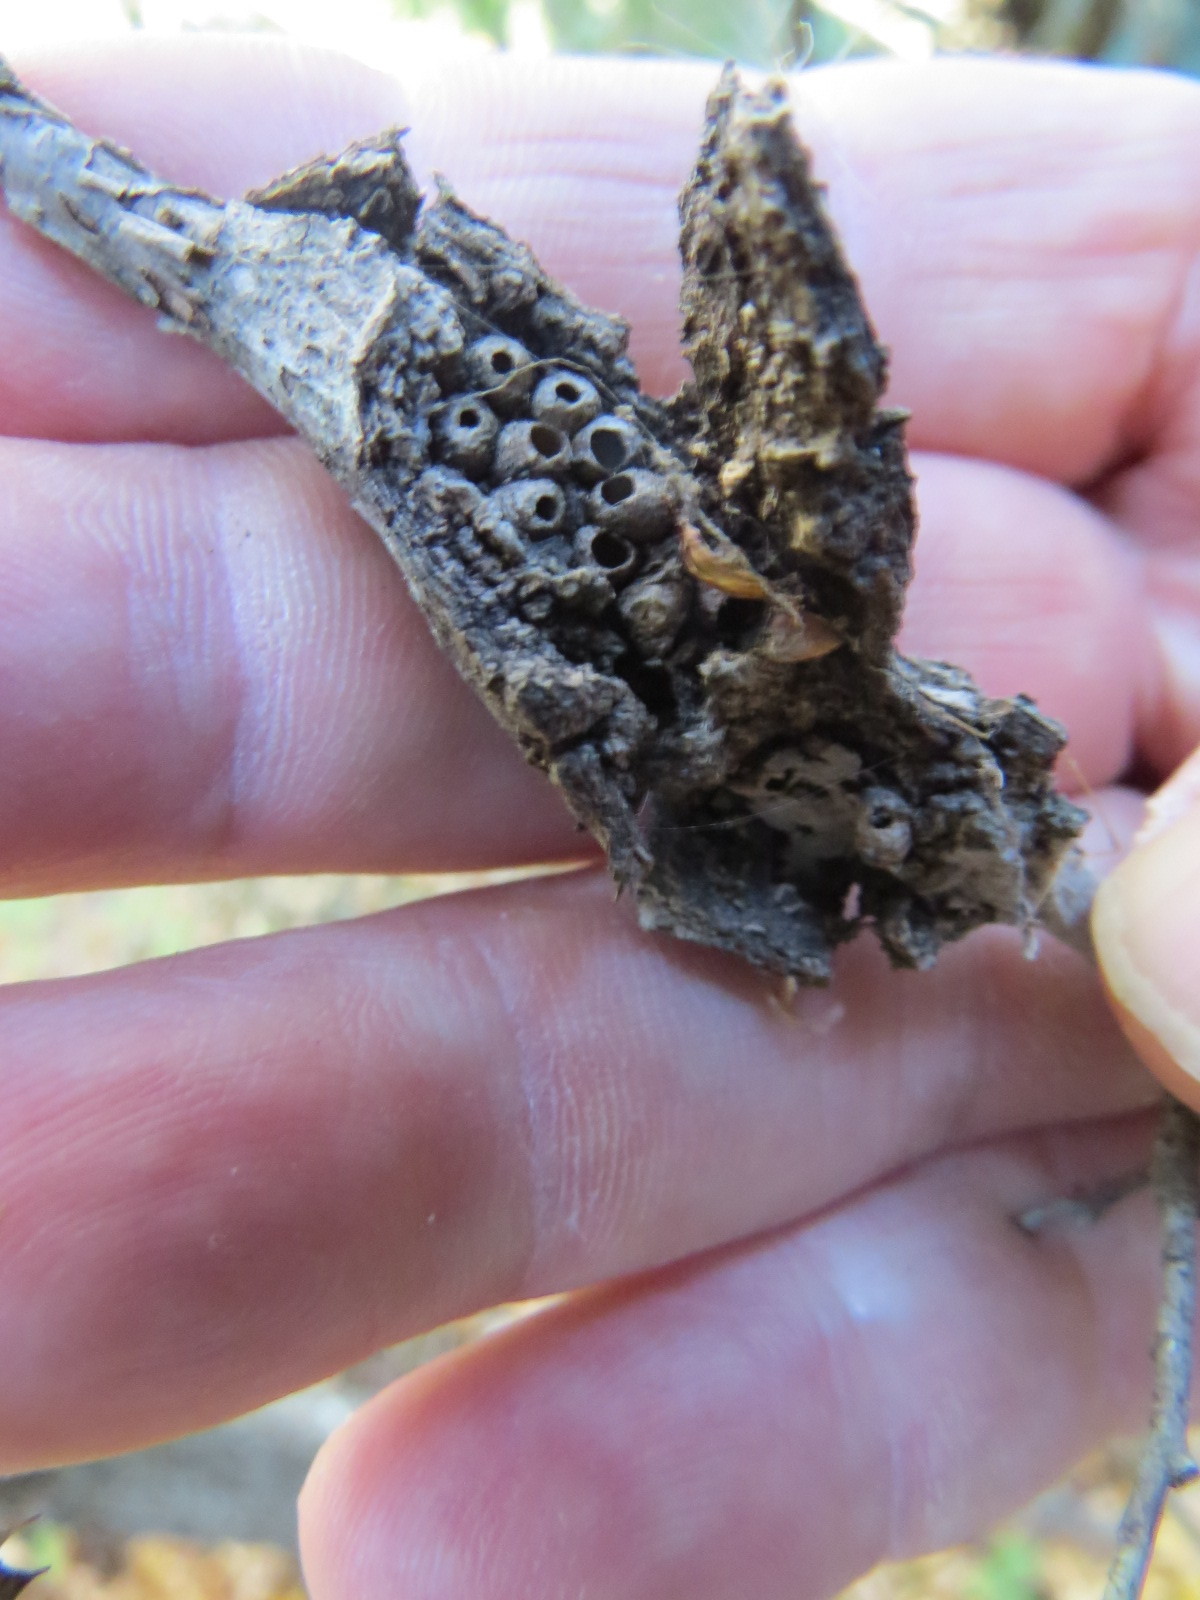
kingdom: Animalia
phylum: Arthropoda
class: Insecta
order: Hymenoptera
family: Cynipidae
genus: Dryocosmus
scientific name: Dryocosmus
